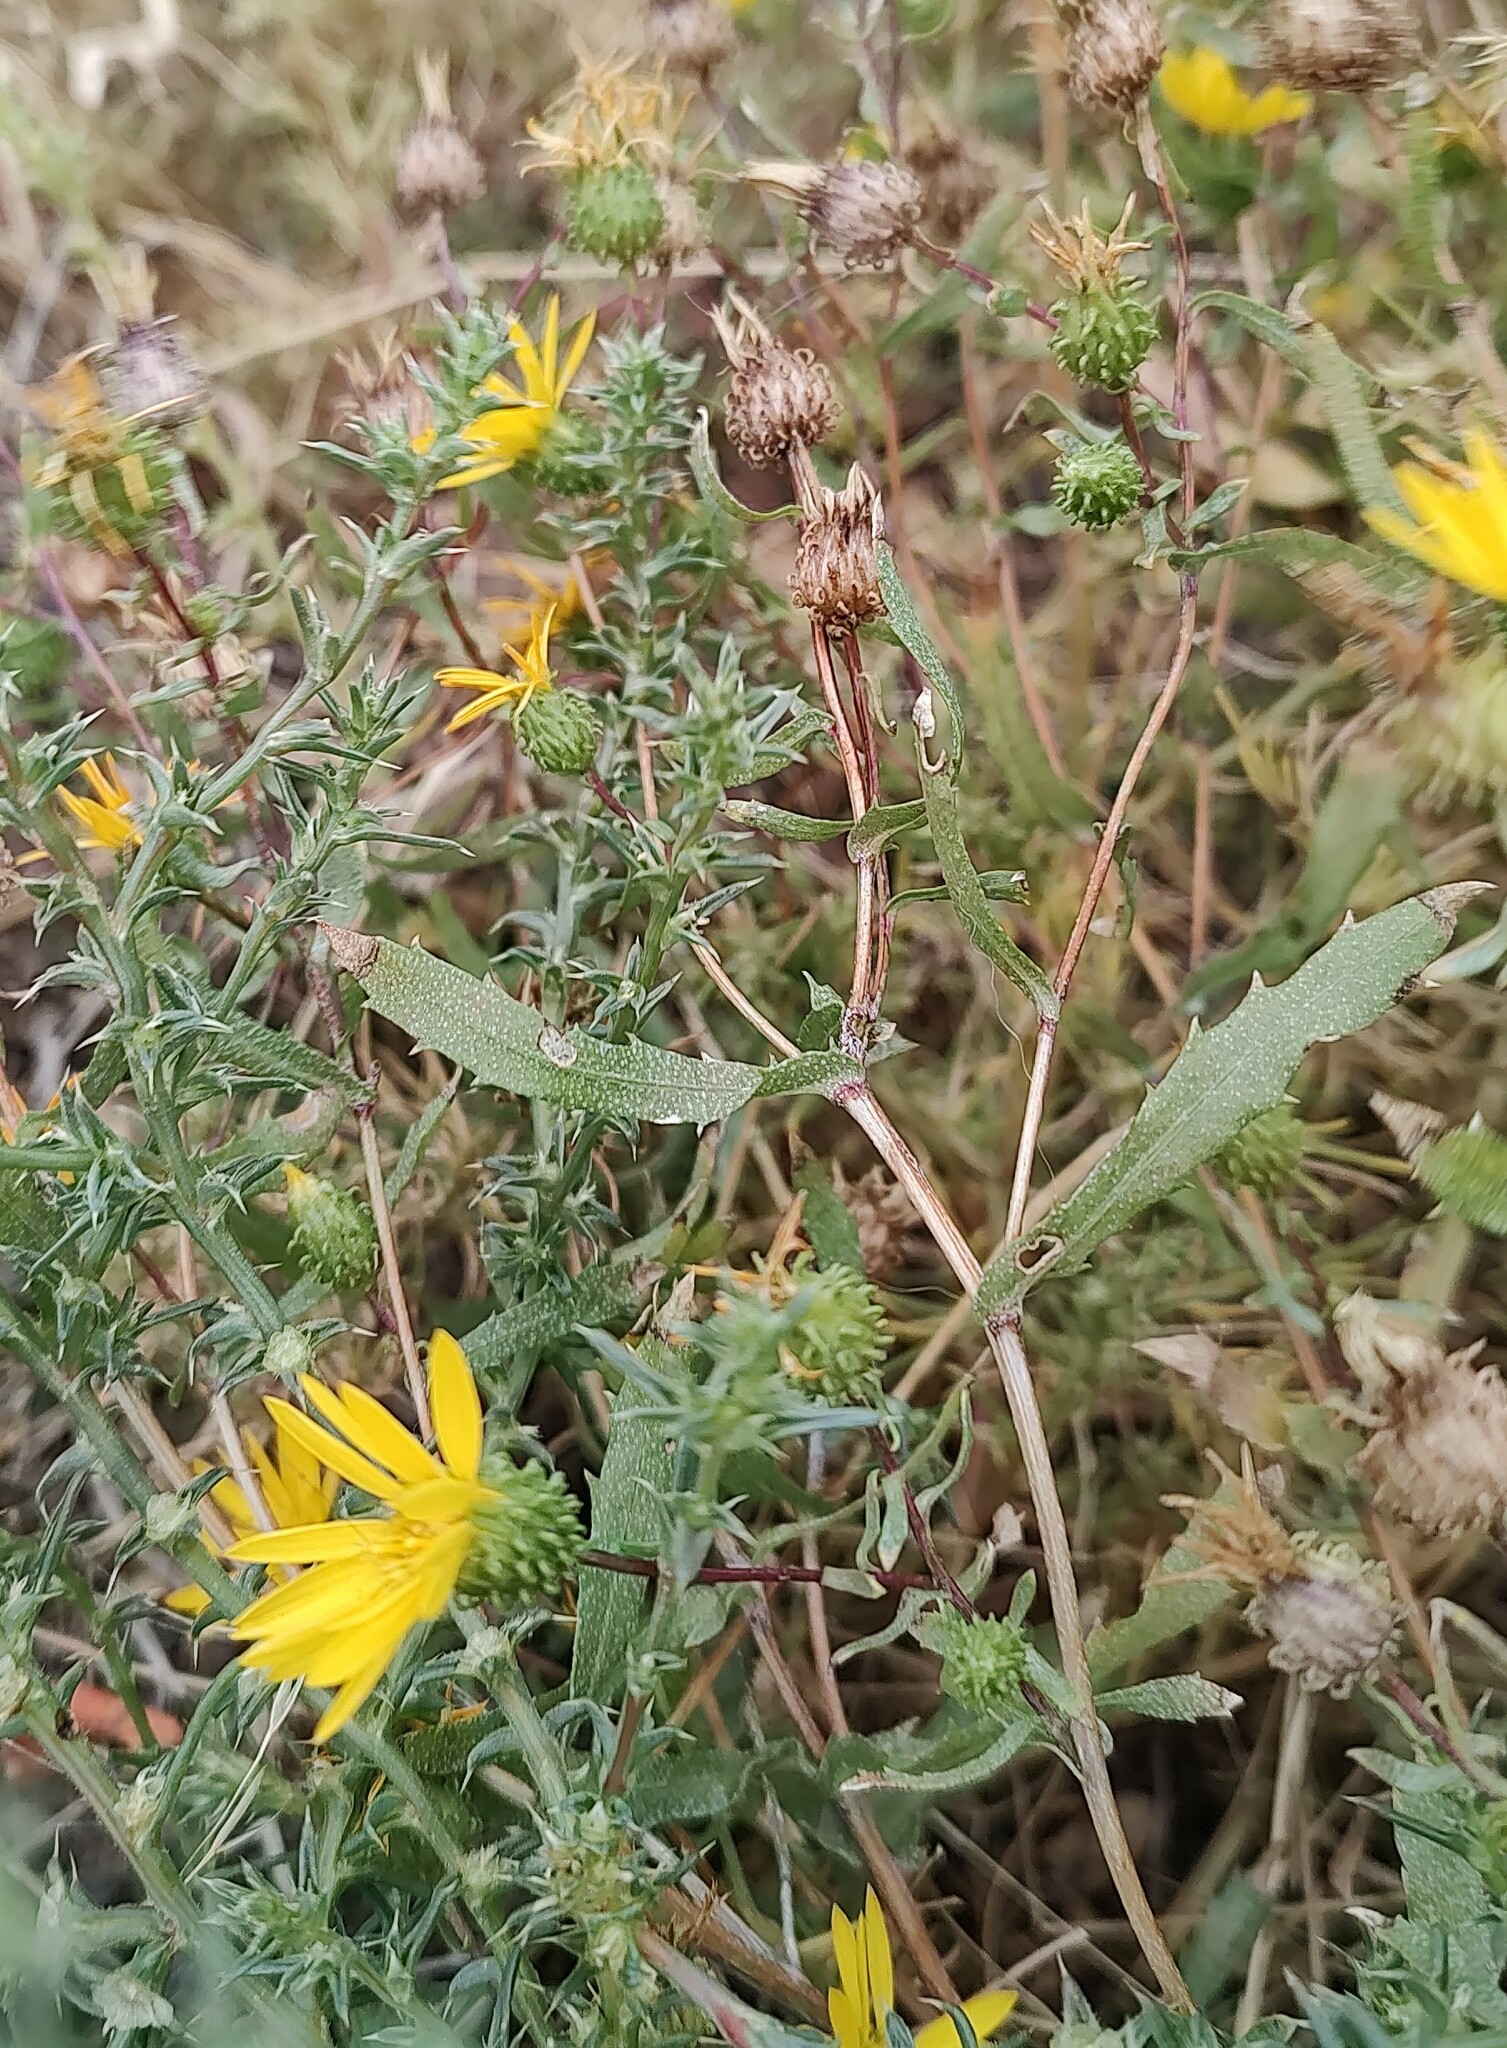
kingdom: Plantae
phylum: Tracheophyta
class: Magnoliopsida
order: Asterales
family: Asteraceae
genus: Grindelia
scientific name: Grindelia hirsutula
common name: Hairy gumweed
